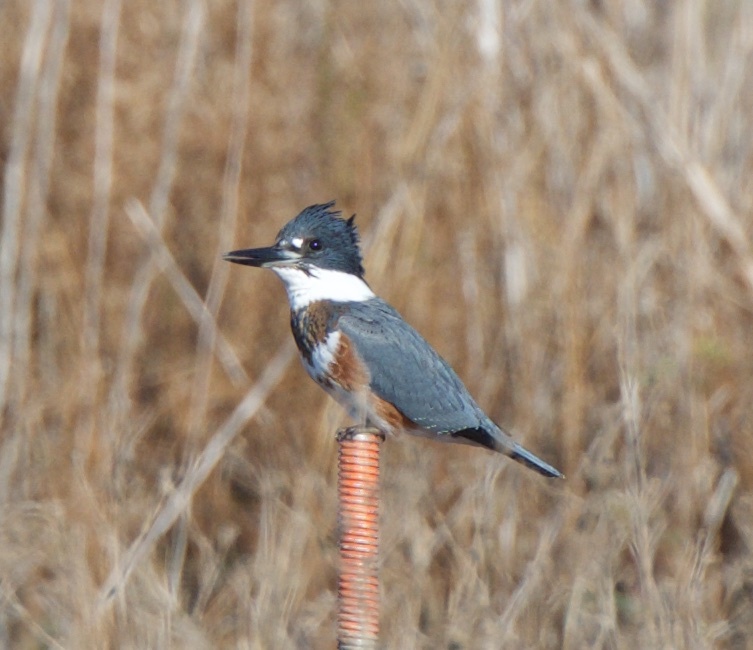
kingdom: Animalia
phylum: Chordata
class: Aves
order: Coraciiformes
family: Alcedinidae
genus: Megaceryle
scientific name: Megaceryle alcyon
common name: Belted kingfisher
